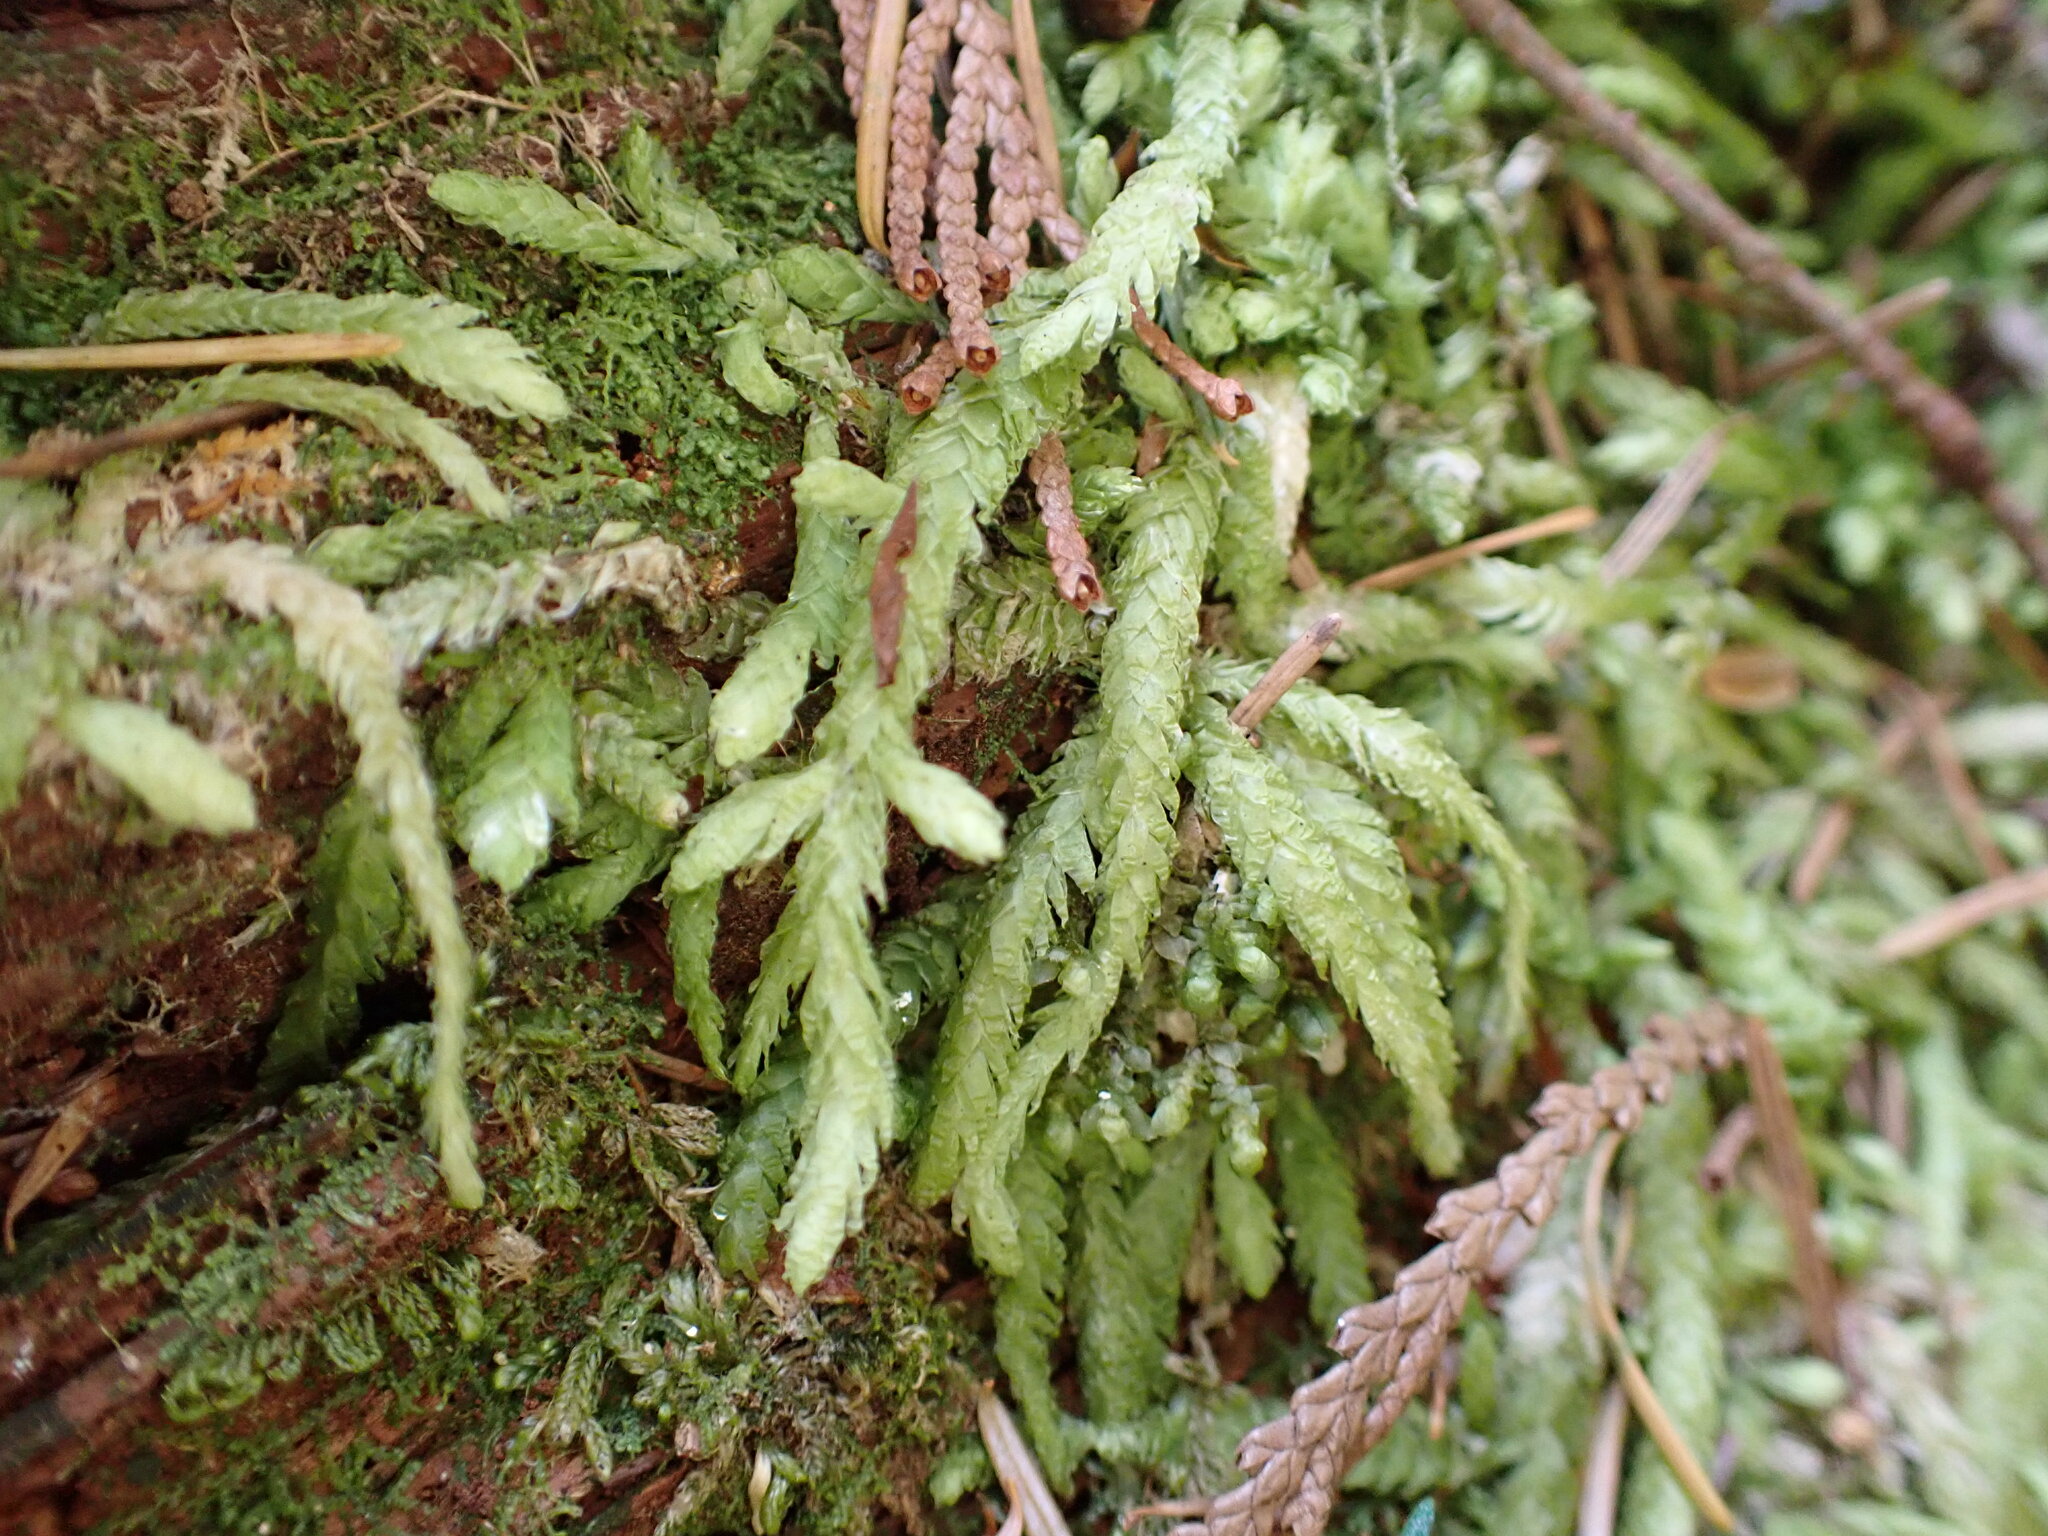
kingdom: Plantae
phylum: Bryophyta
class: Bryopsida
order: Hypnales
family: Plagiotheciaceae
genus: Plagiothecium
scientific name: Plagiothecium undulatum
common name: Waved silk-moss
